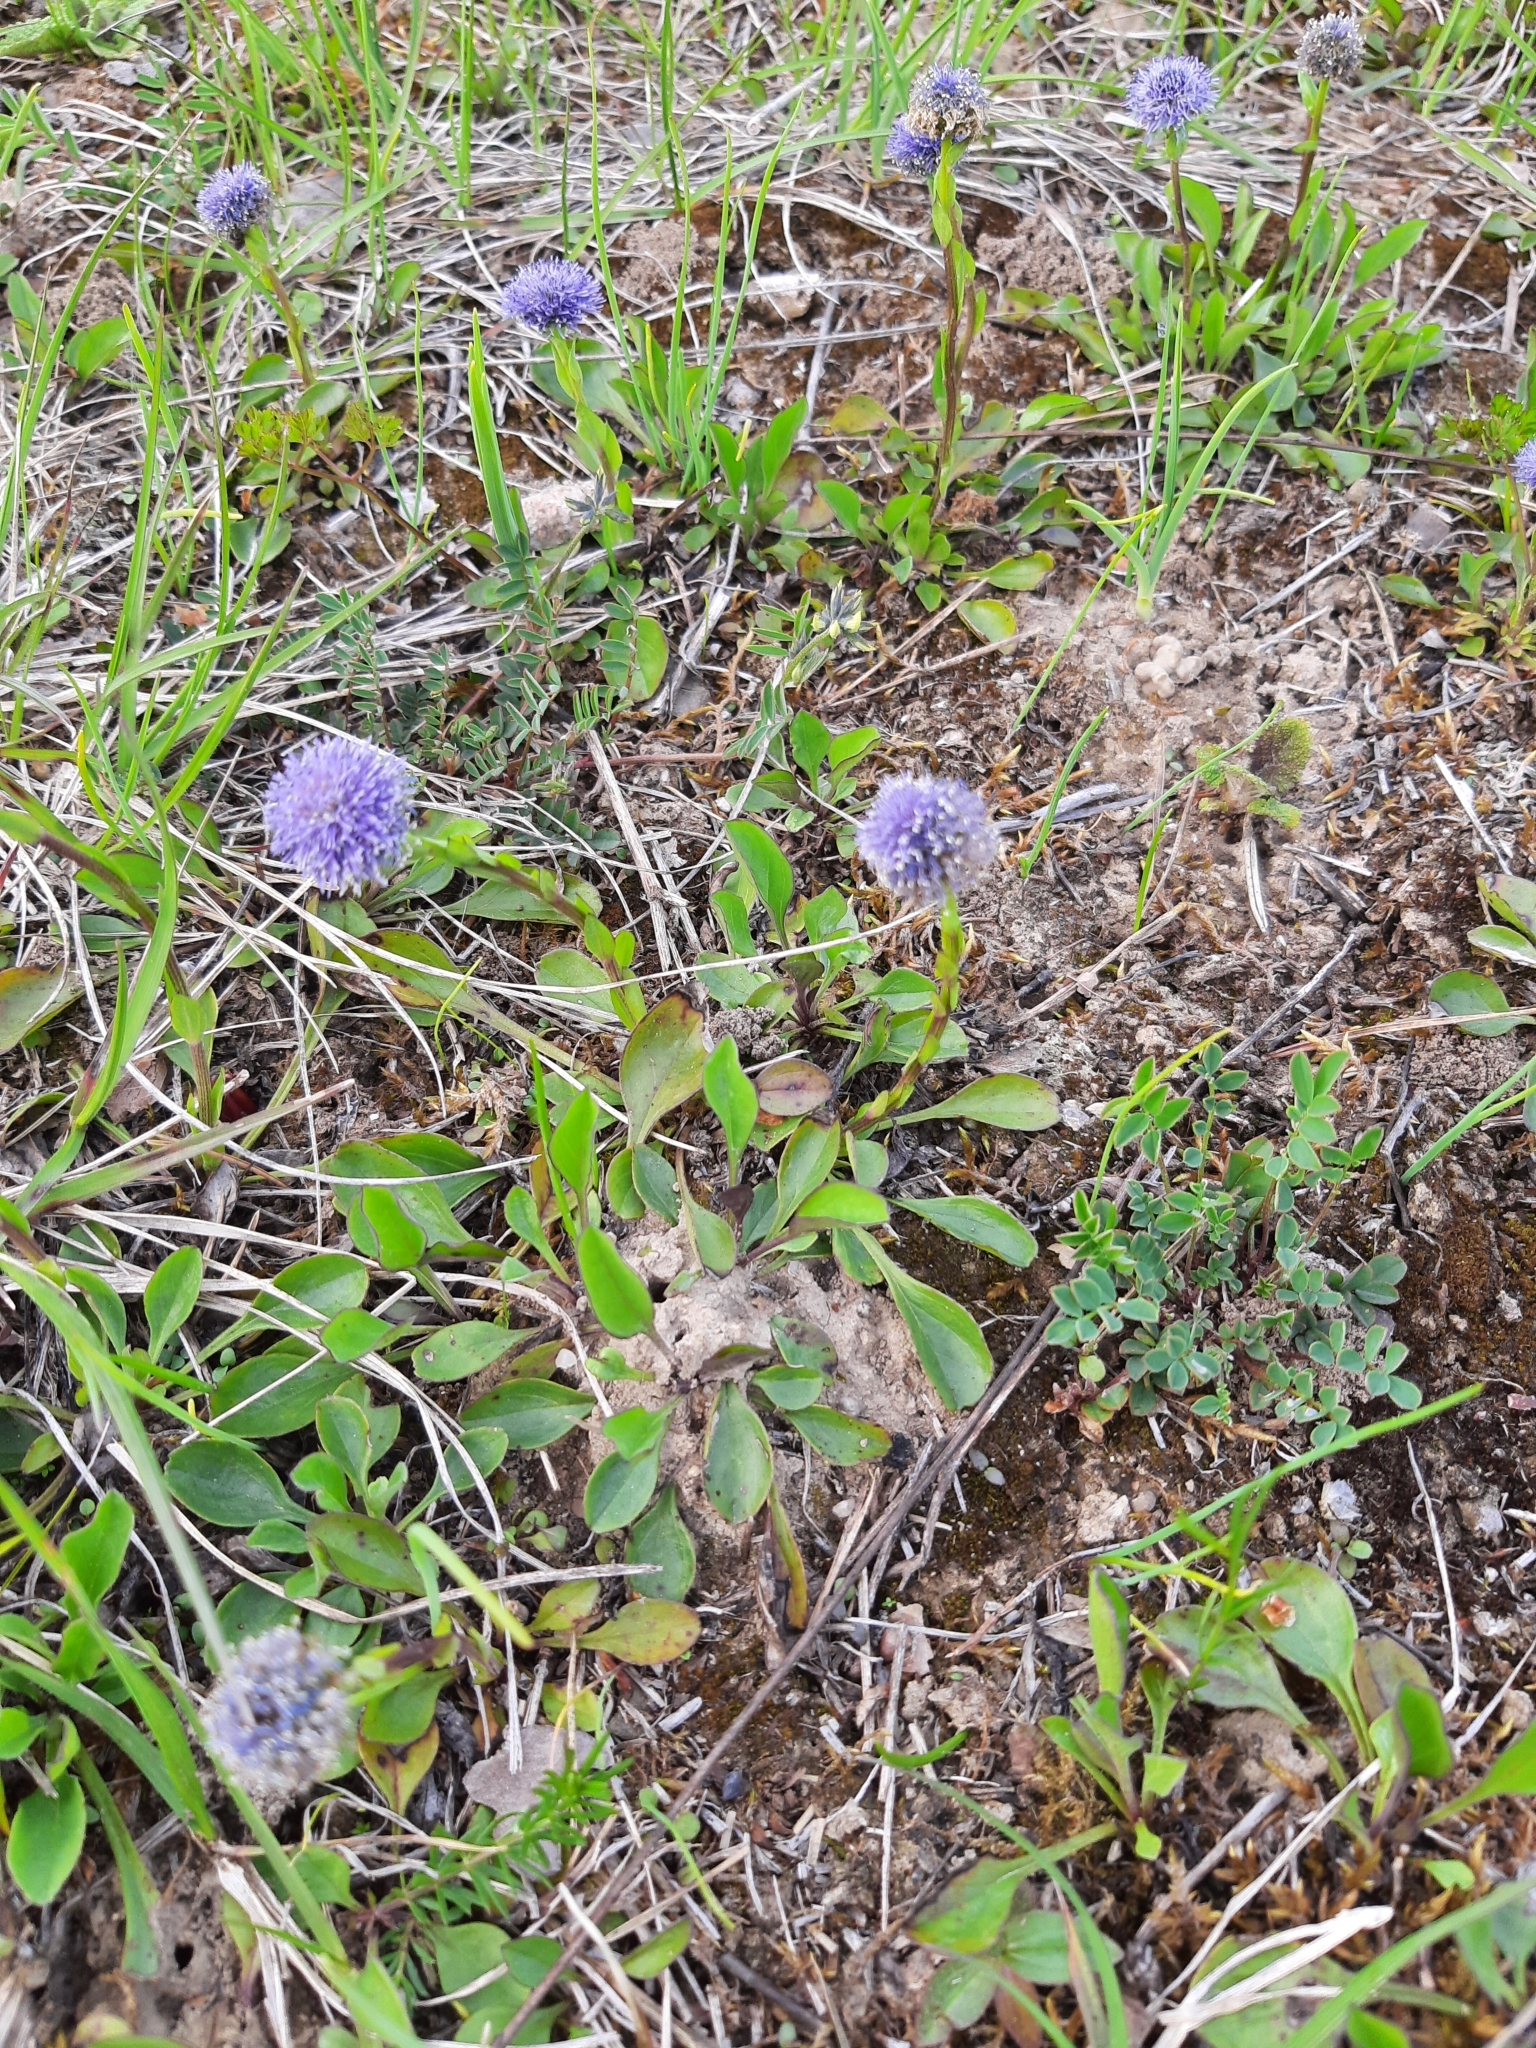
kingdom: Plantae
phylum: Tracheophyta
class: Magnoliopsida
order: Lamiales
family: Plantaginaceae
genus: Globularia
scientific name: Globularia bisnagarica
